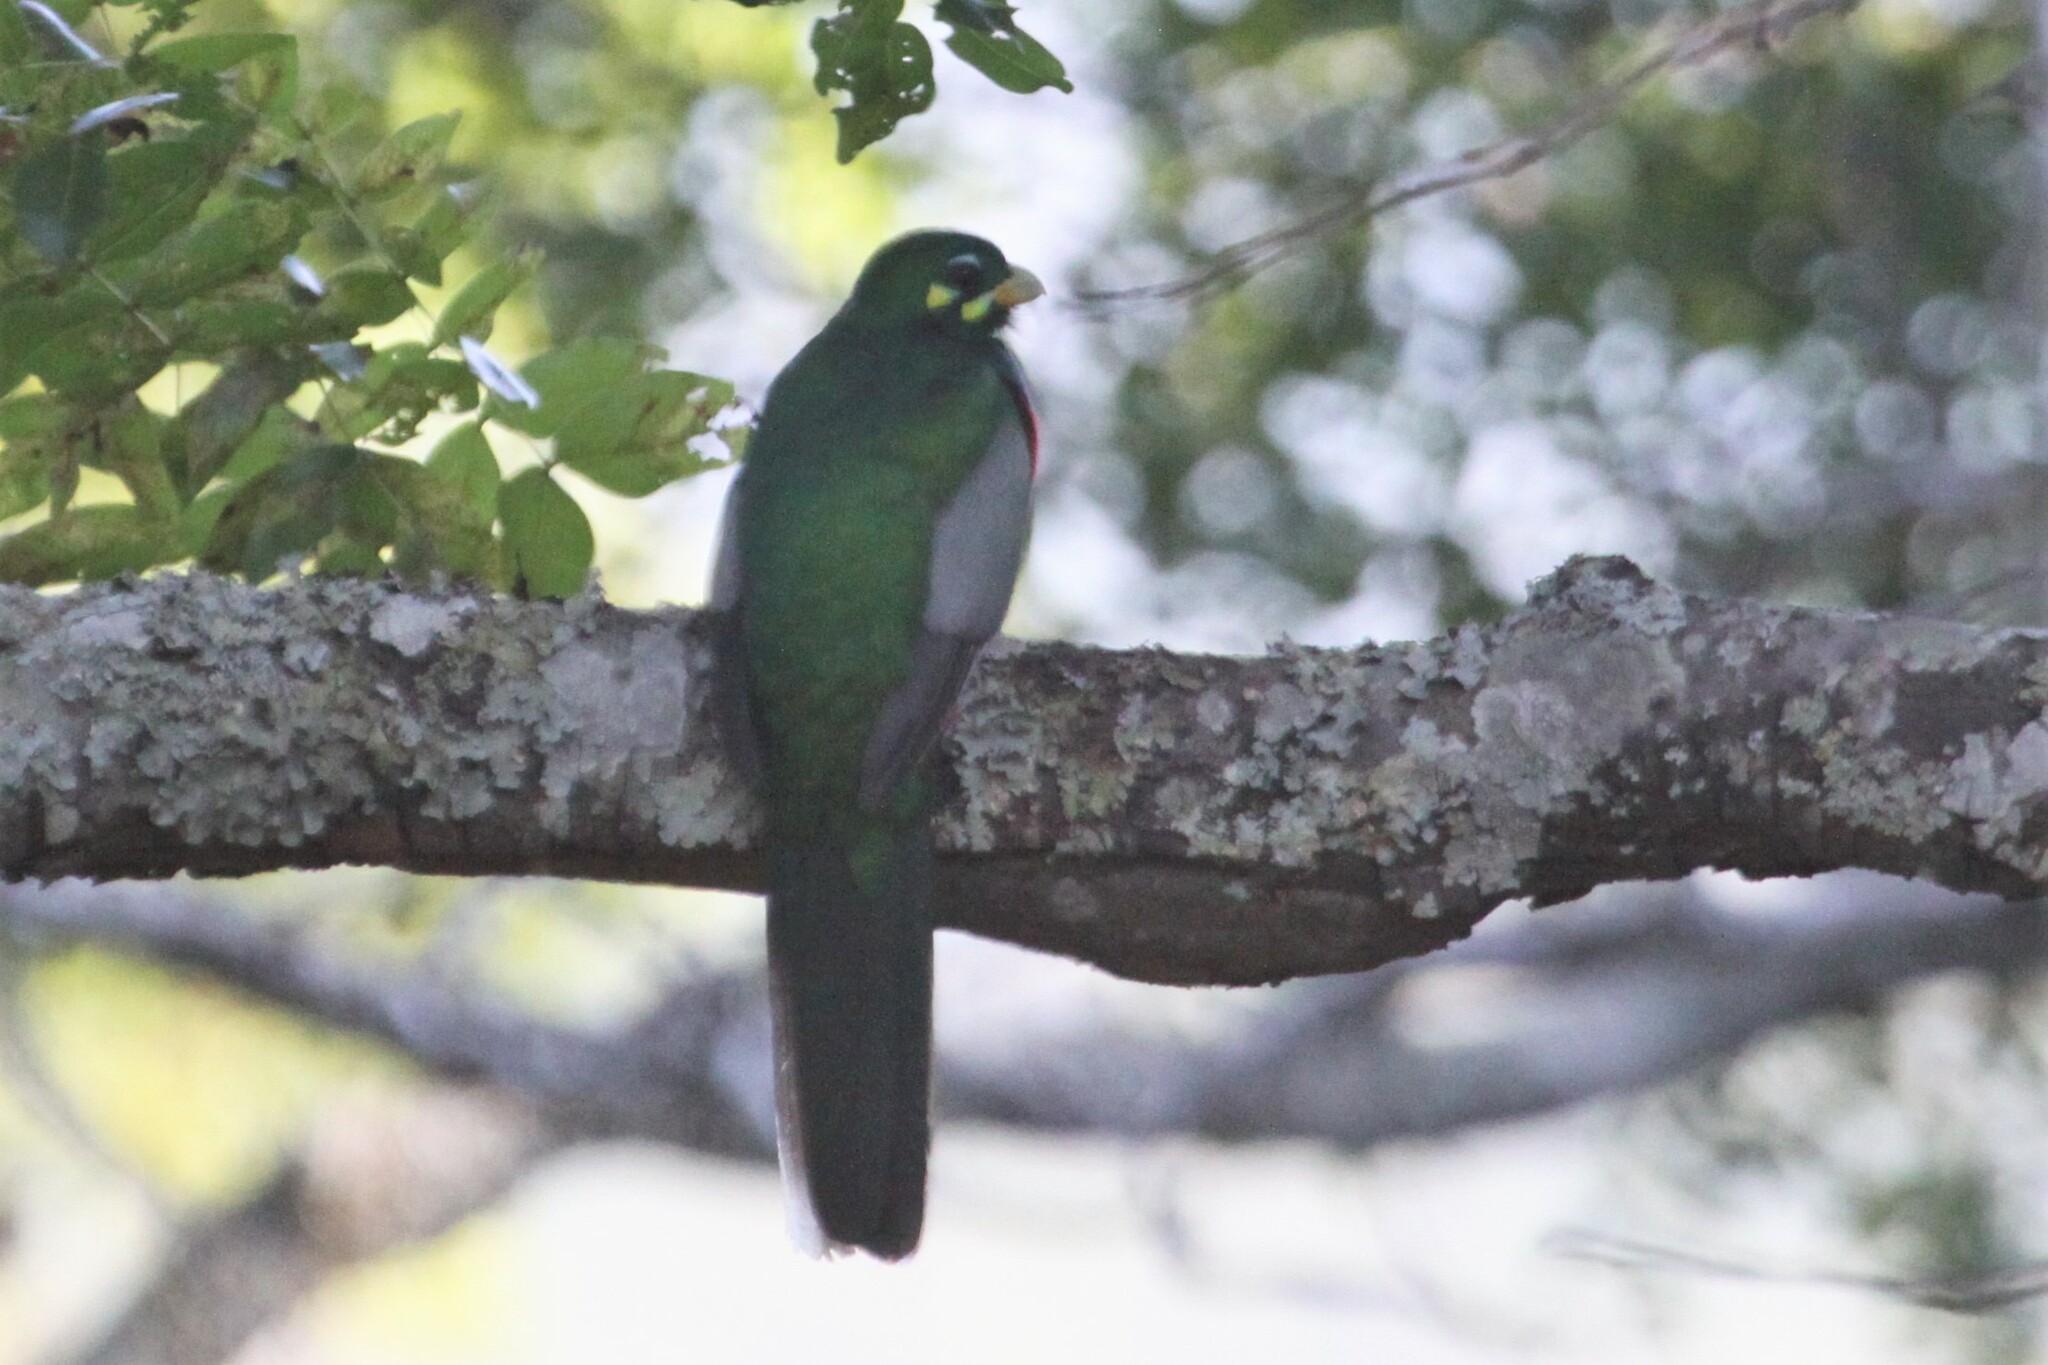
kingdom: Animalia
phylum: Chordata
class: Aves
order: Trogoniformes
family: Trogonidae
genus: Apaloderma
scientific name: Apaloderma narina
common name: Narina trogon
